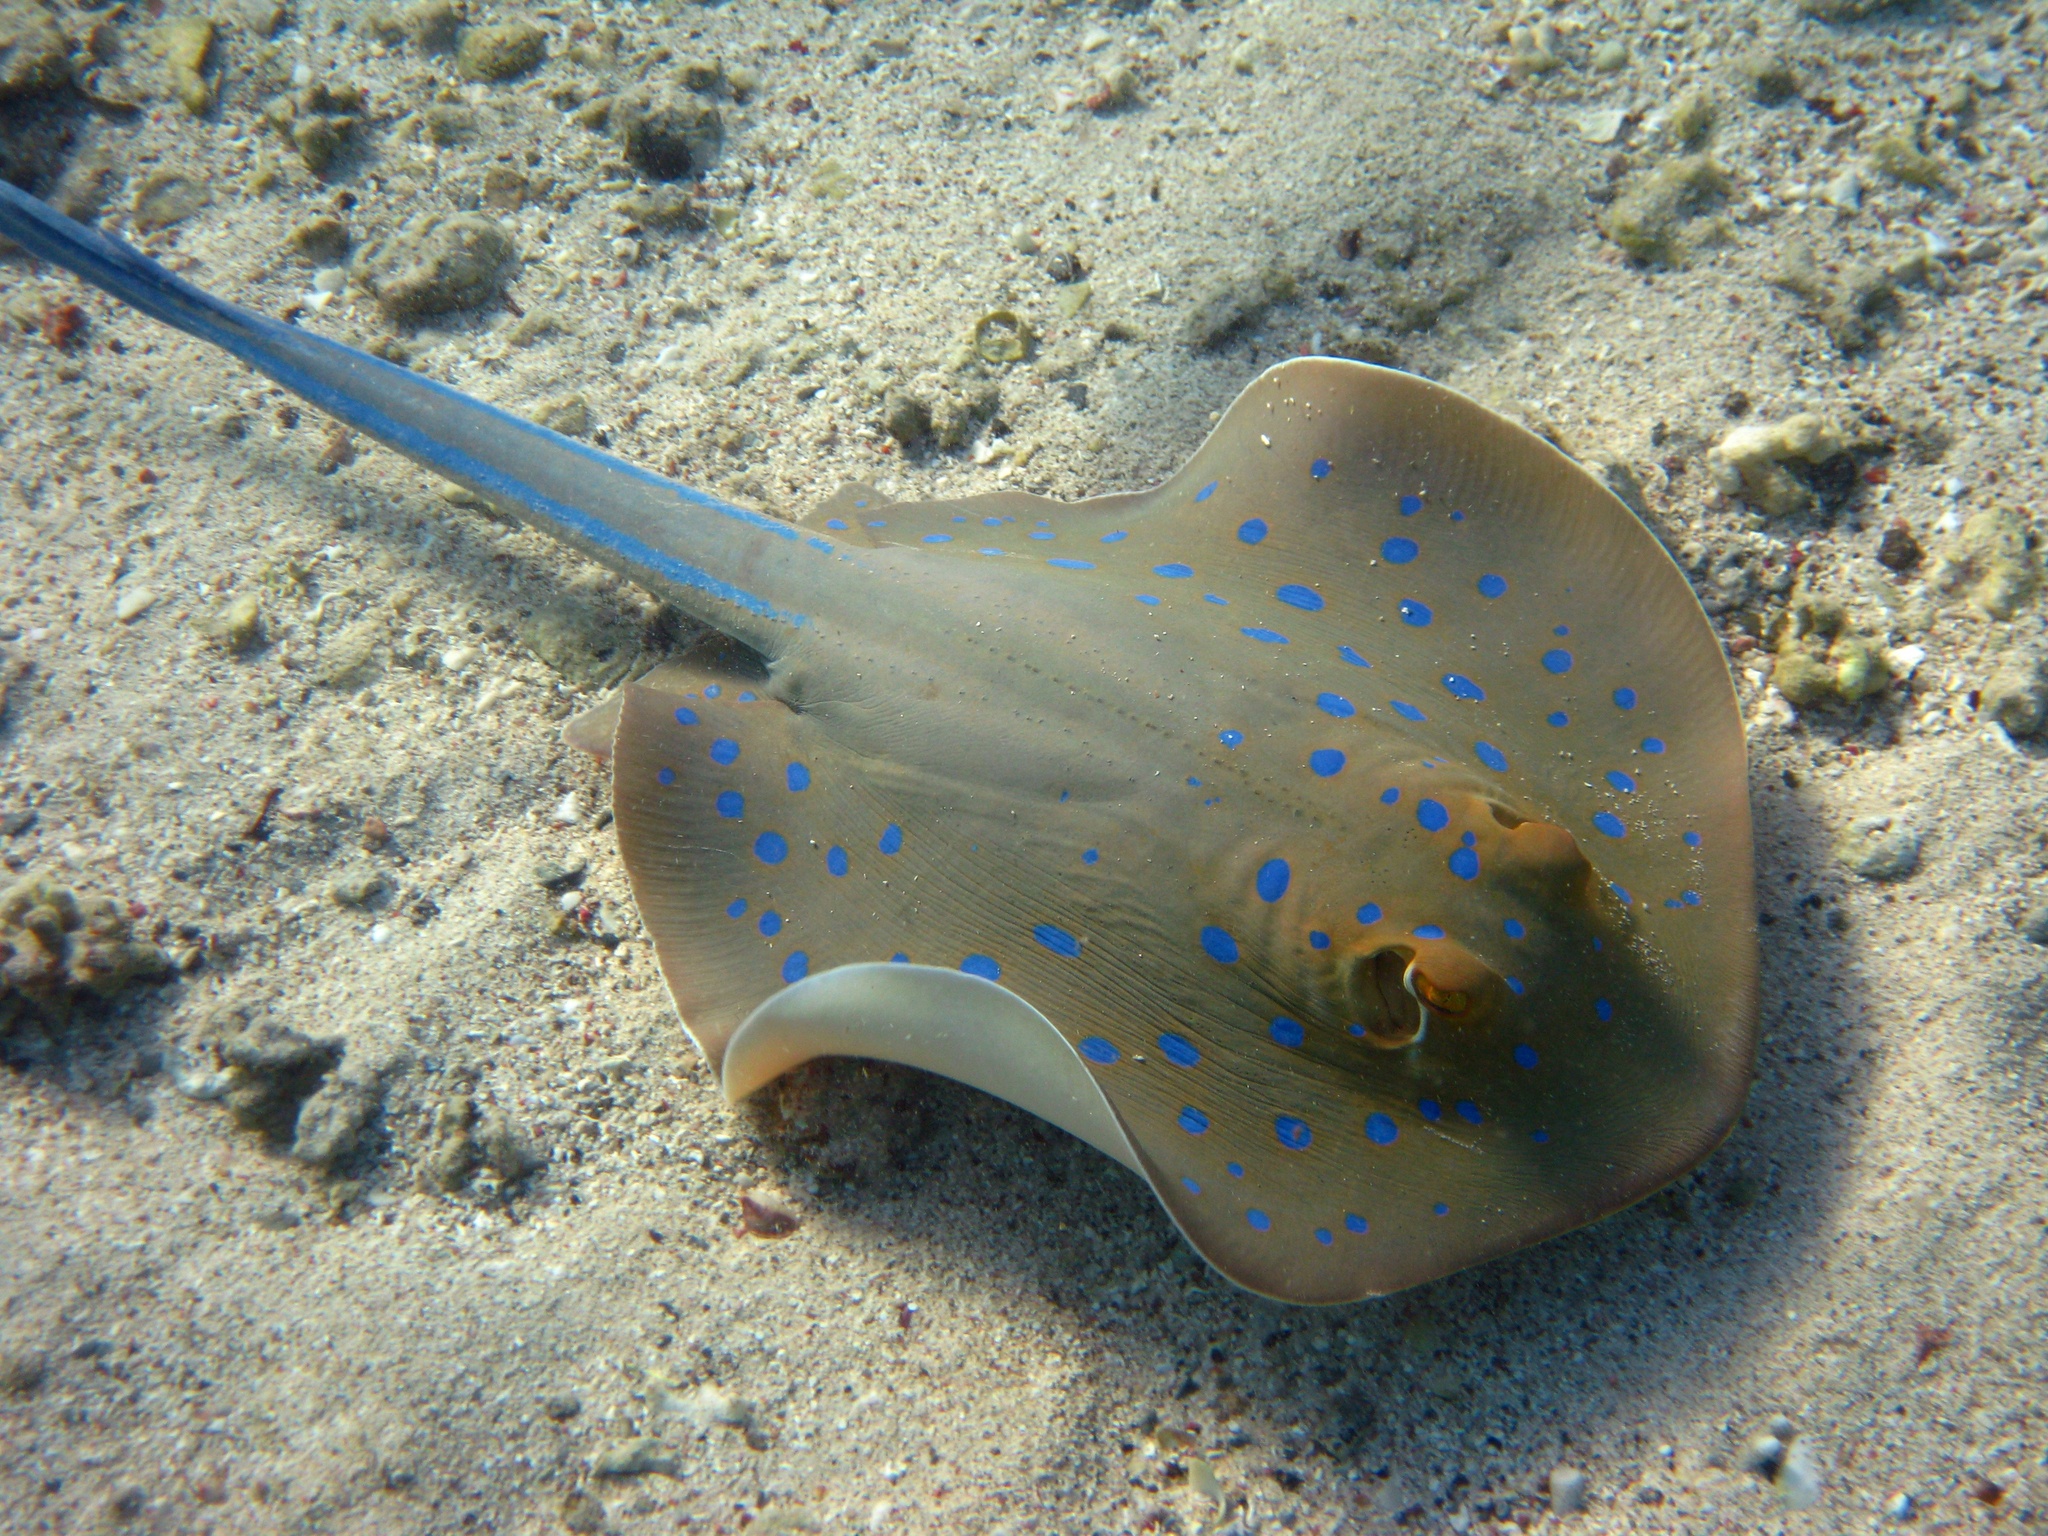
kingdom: Animalia
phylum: Chordata
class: Elasmobranchii
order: Myliobatiformes
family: Dasyatidae
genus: Taeniura
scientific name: Taeniura lymma
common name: Bluespotted ribbontail ray
